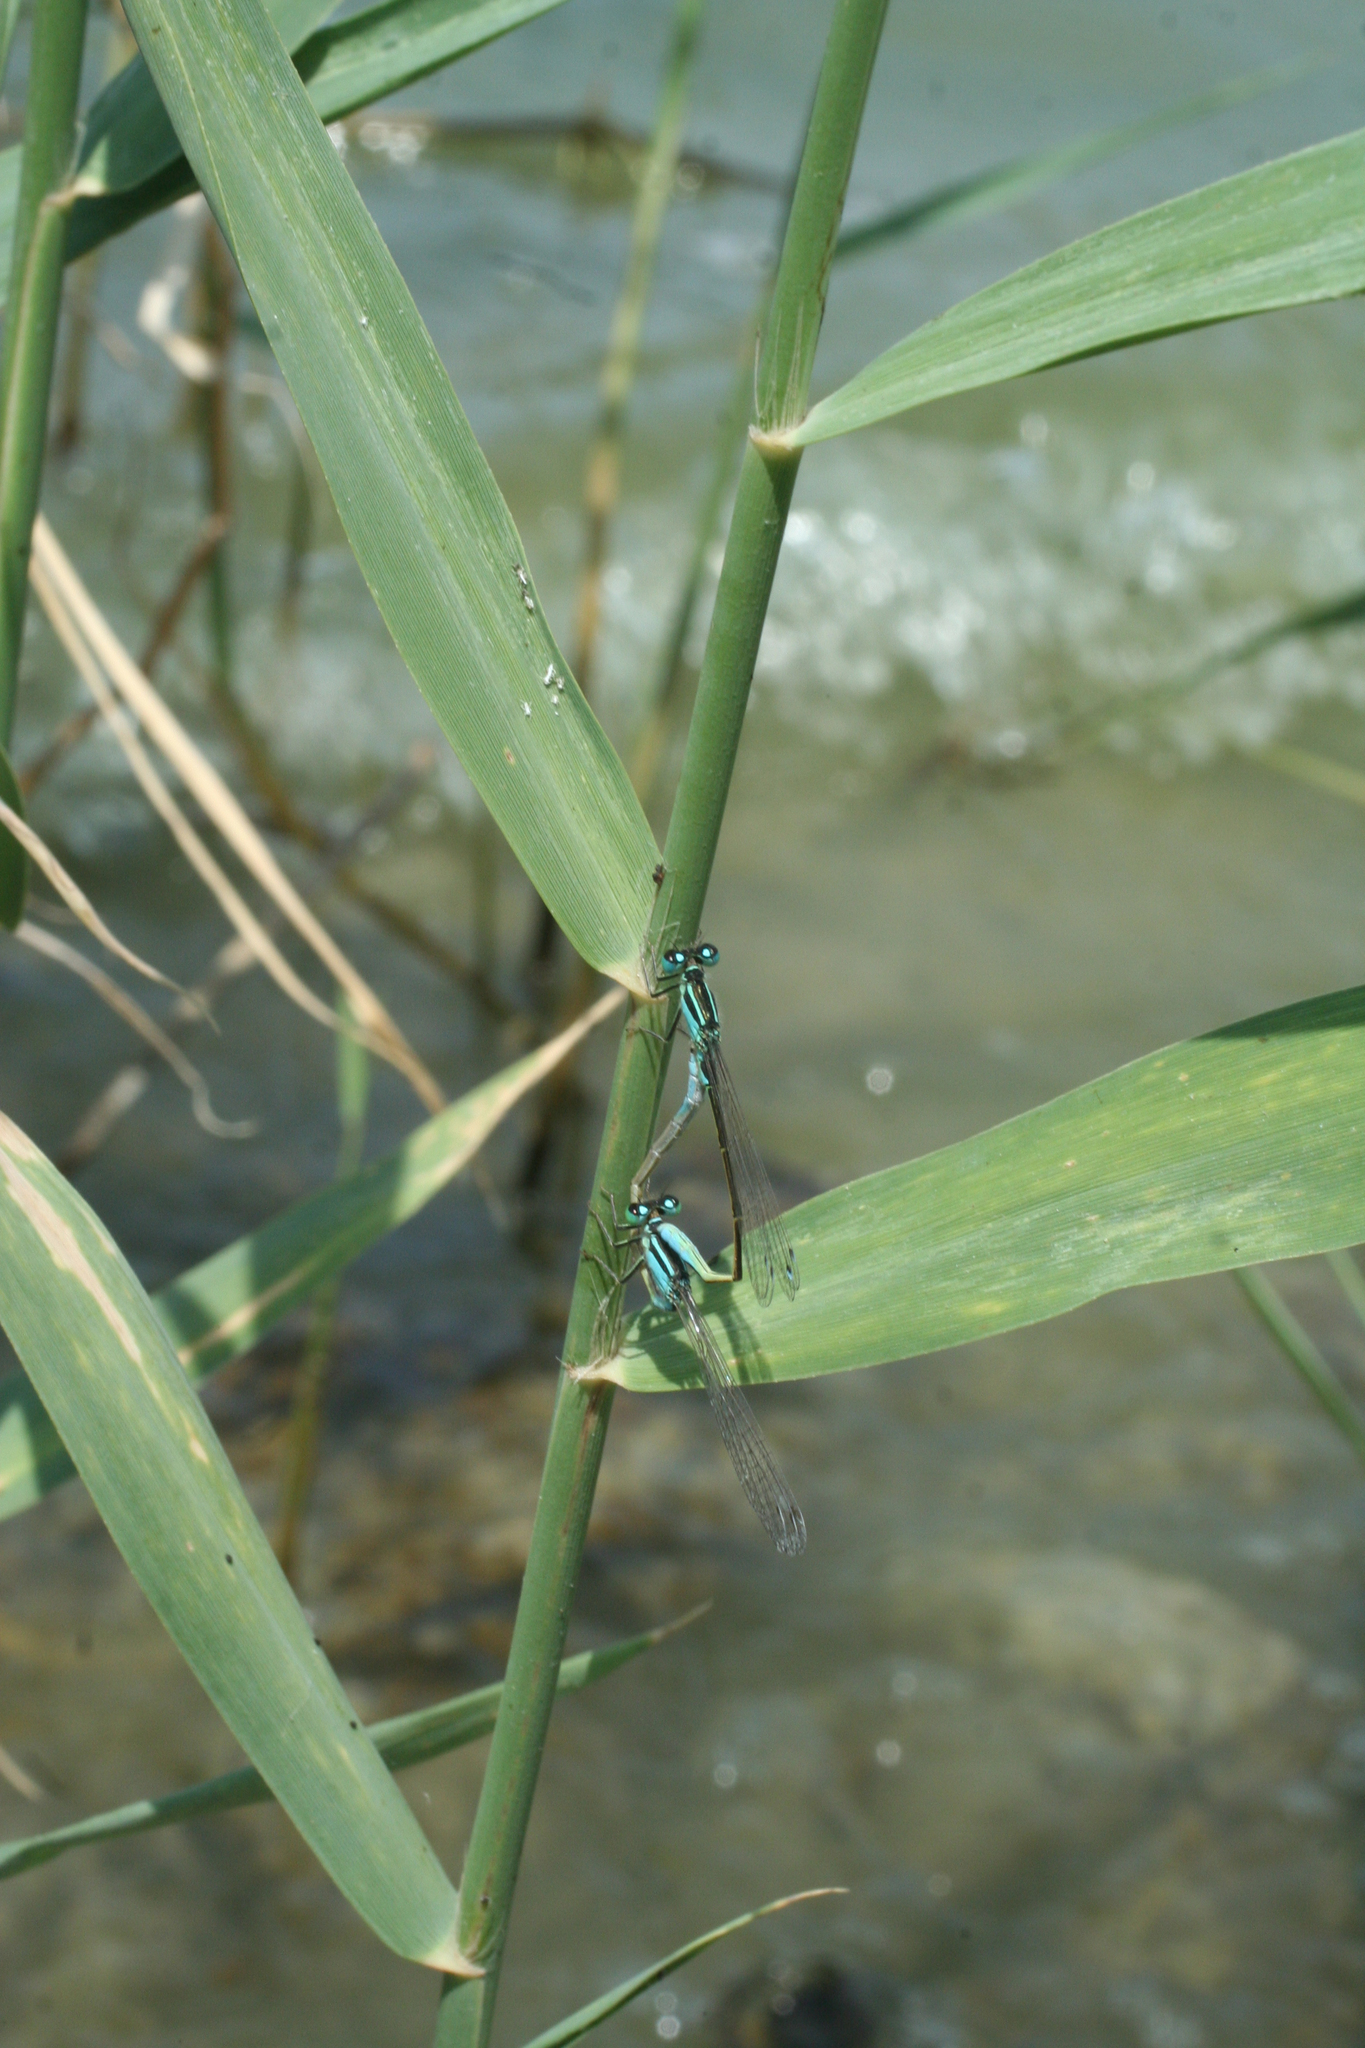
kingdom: Animalia
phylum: Arthropoda
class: Insecta
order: Odonata
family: Coenagrionidae
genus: Ischnura
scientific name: Ischnura elegans
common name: Blue-tailed damselfly
